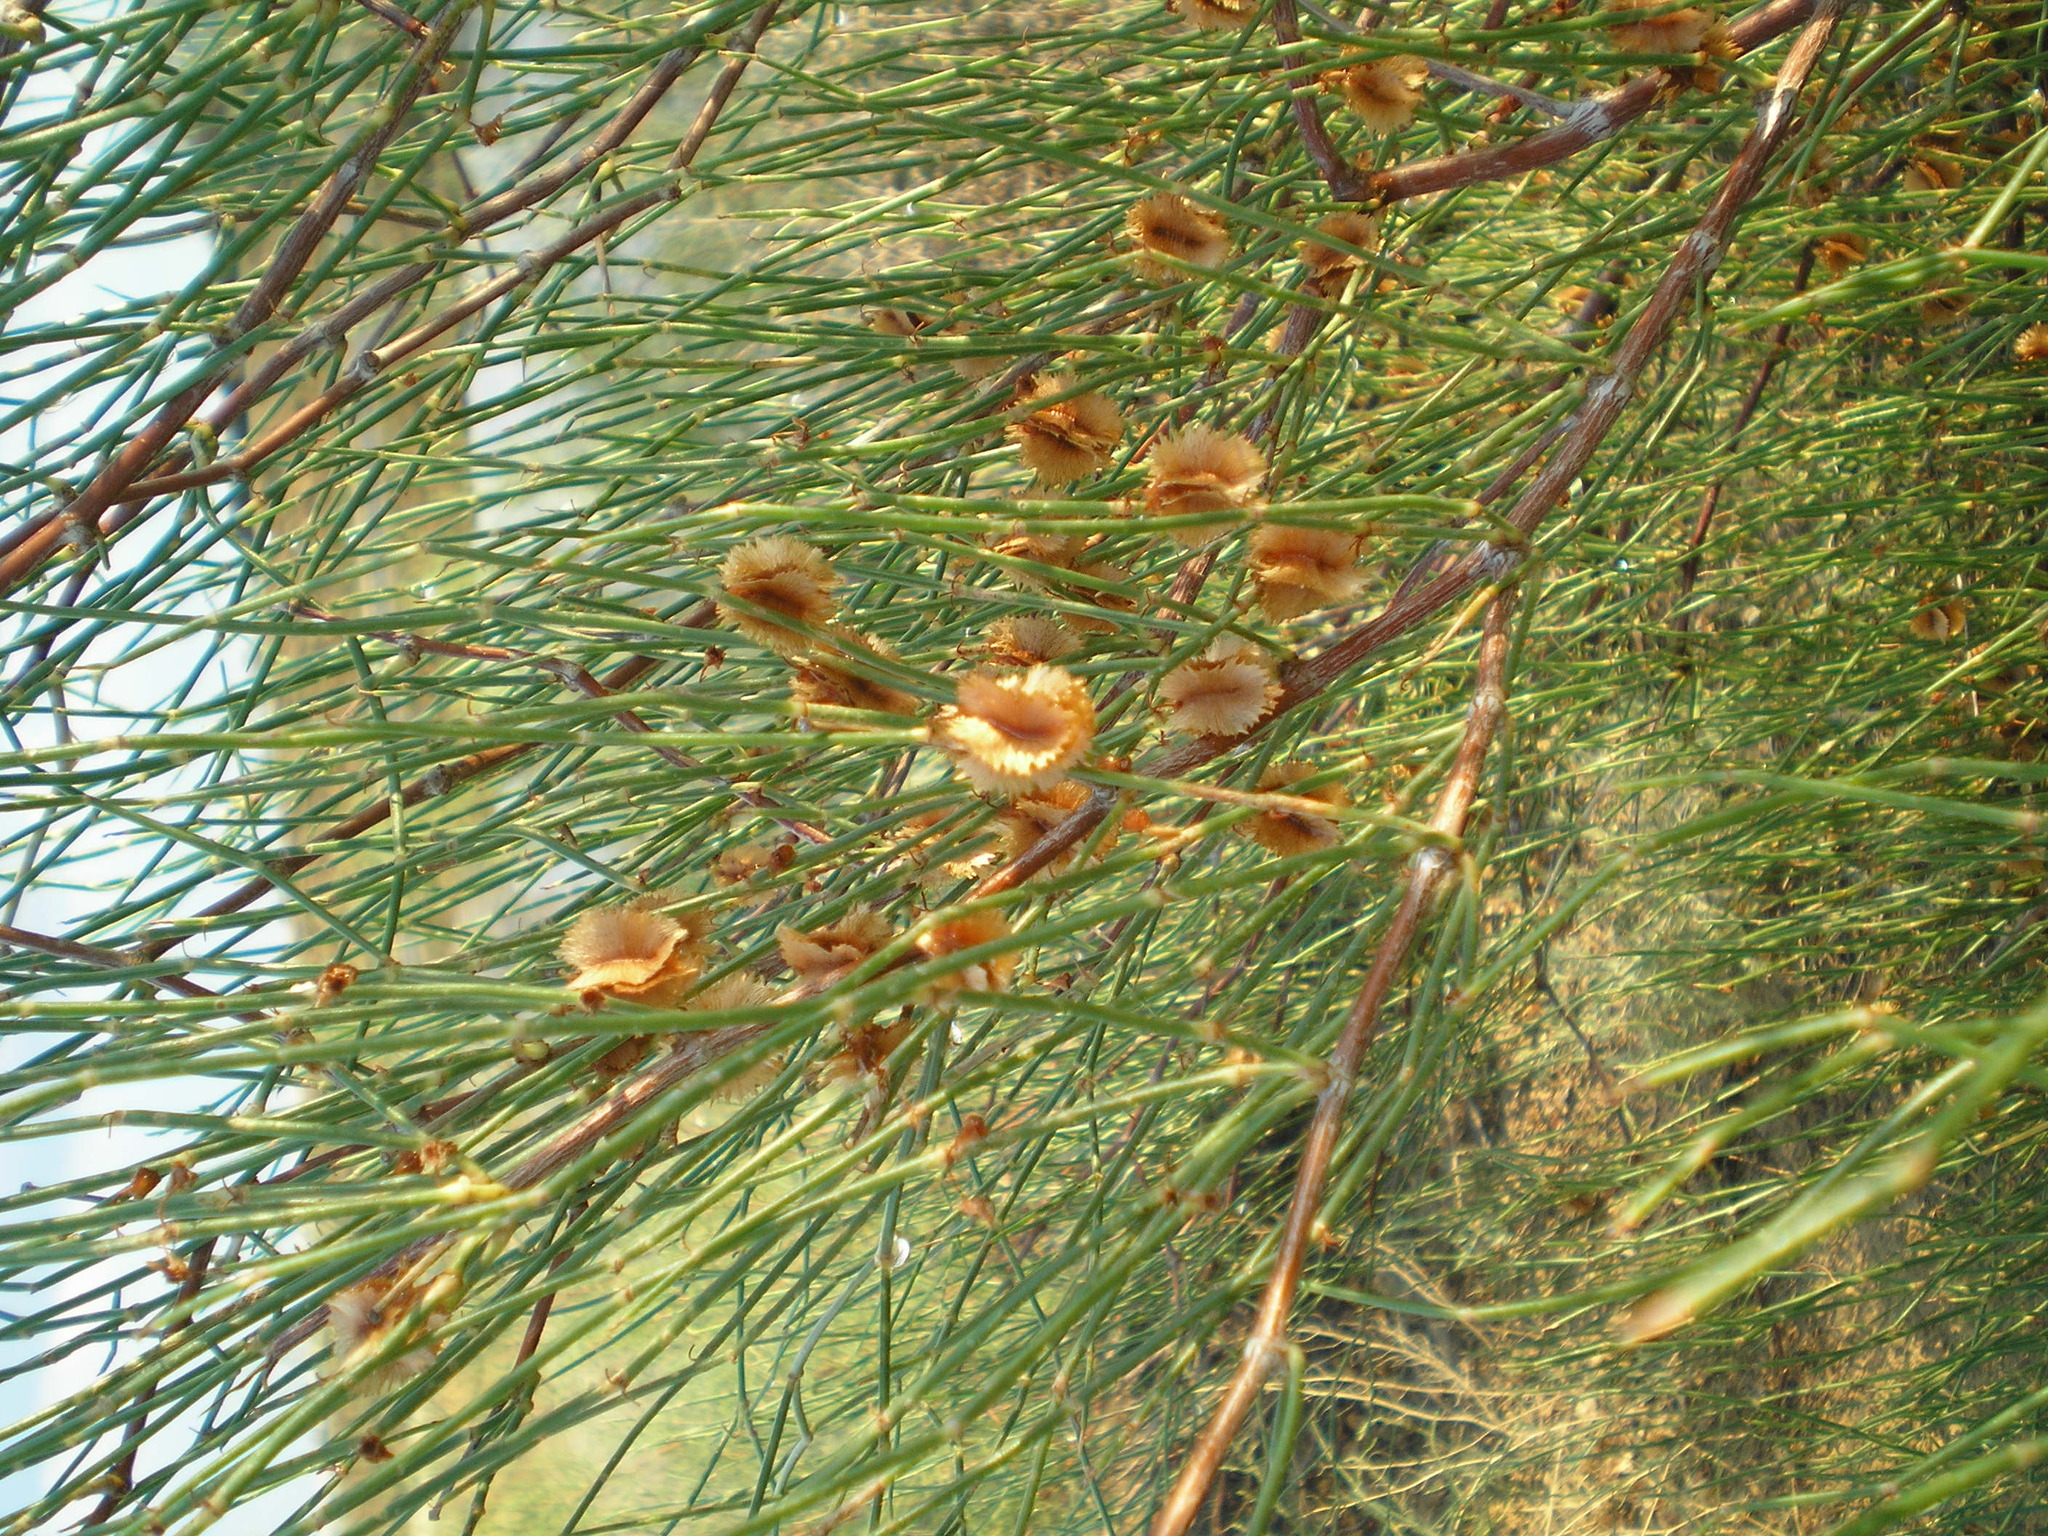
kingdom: Plantae
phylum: Tracheophyta
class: Magnoliopsida
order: Caryophyllales
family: Polygonaceae
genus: Calligonum
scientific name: Calligonum aphyllum
